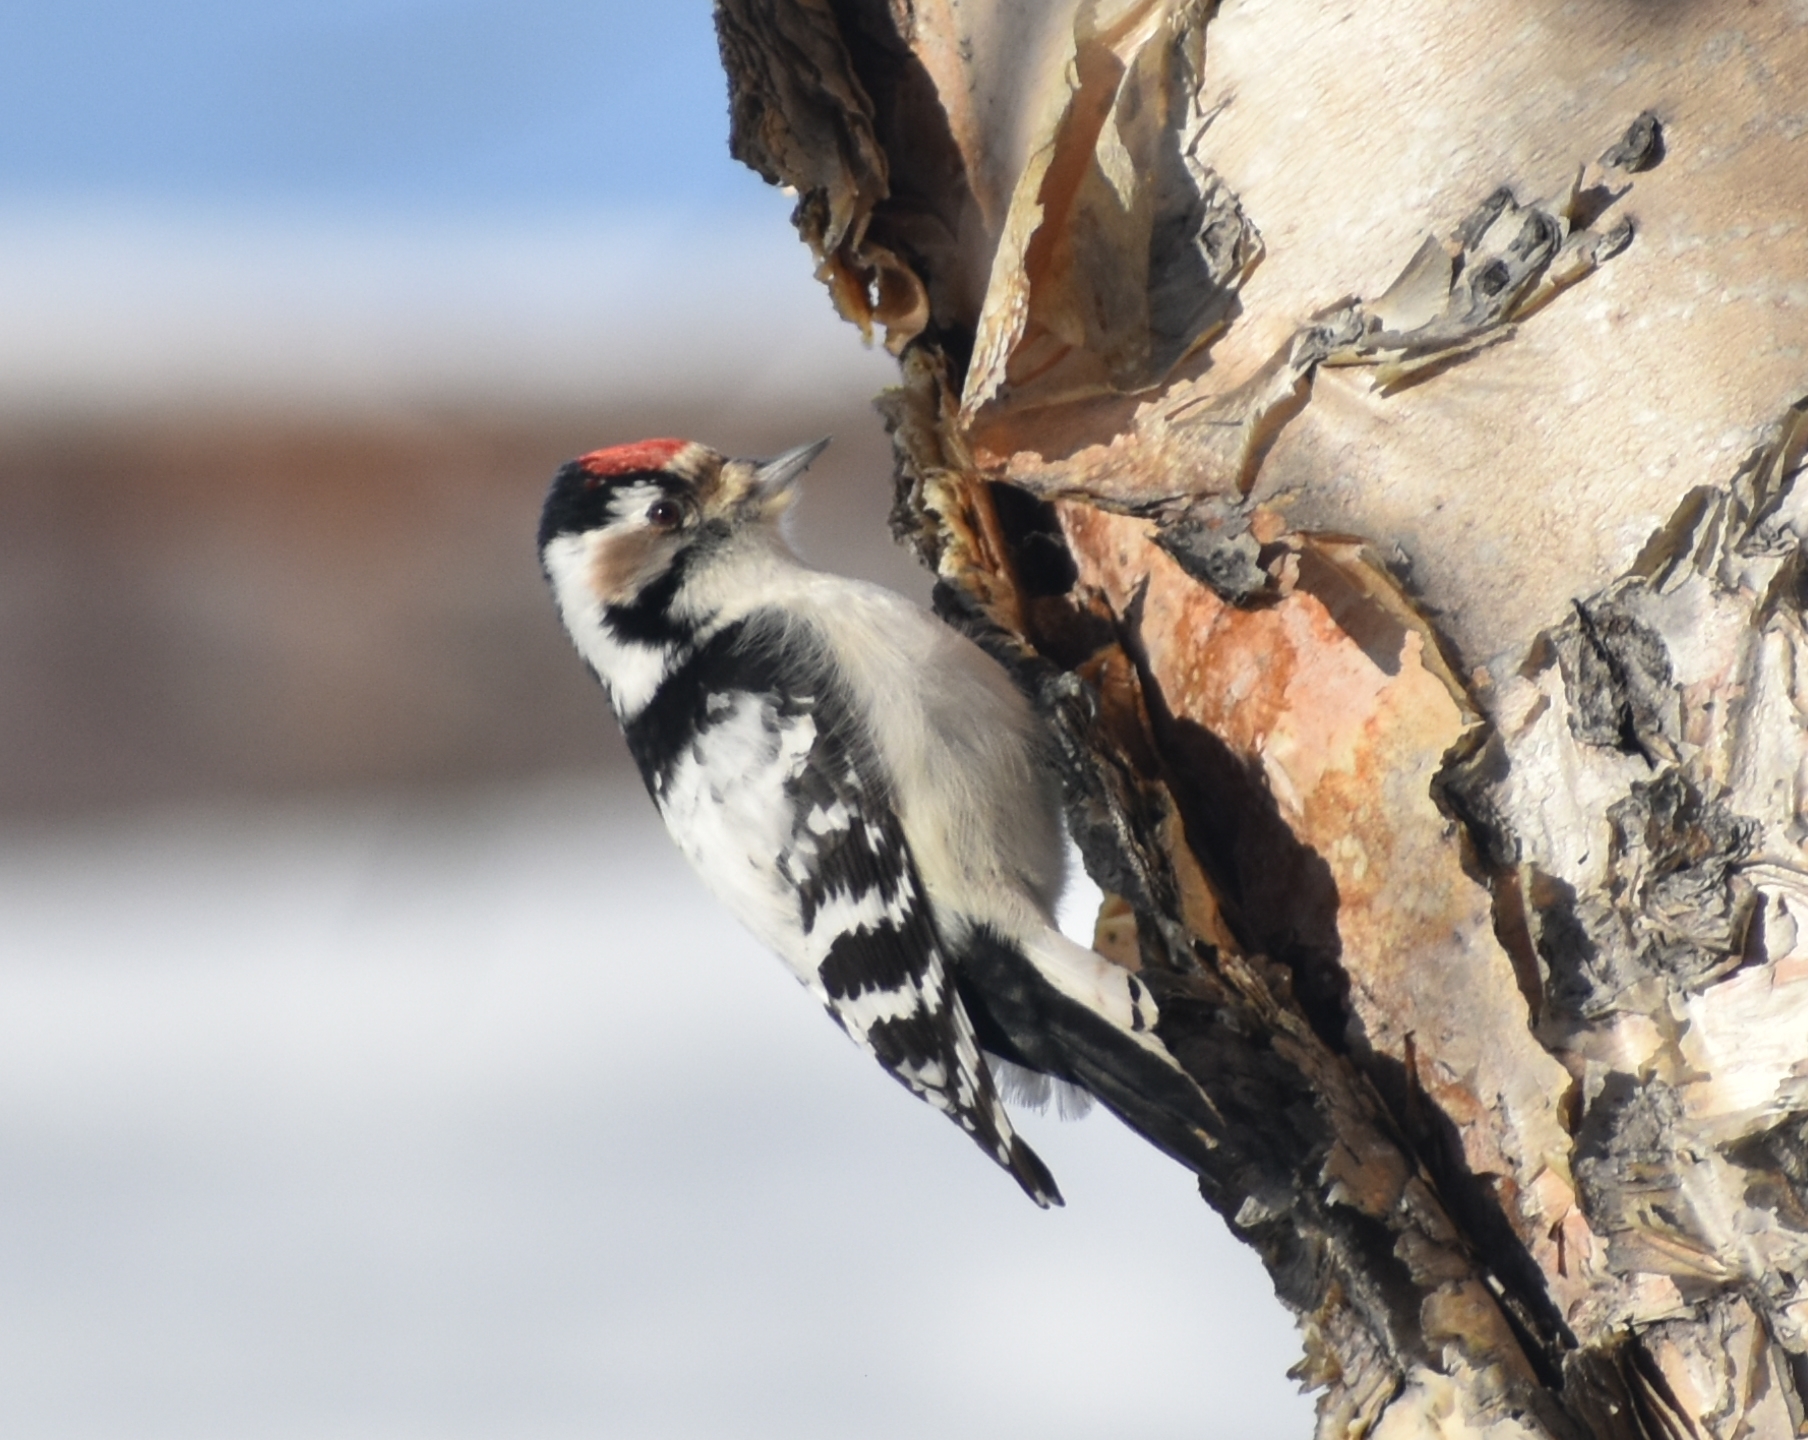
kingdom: Animalia
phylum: Chordata
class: Aves
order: Piciformes
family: Picidae
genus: Dryobates
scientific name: Dryobates minor
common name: Lesser spotted woodpecker
